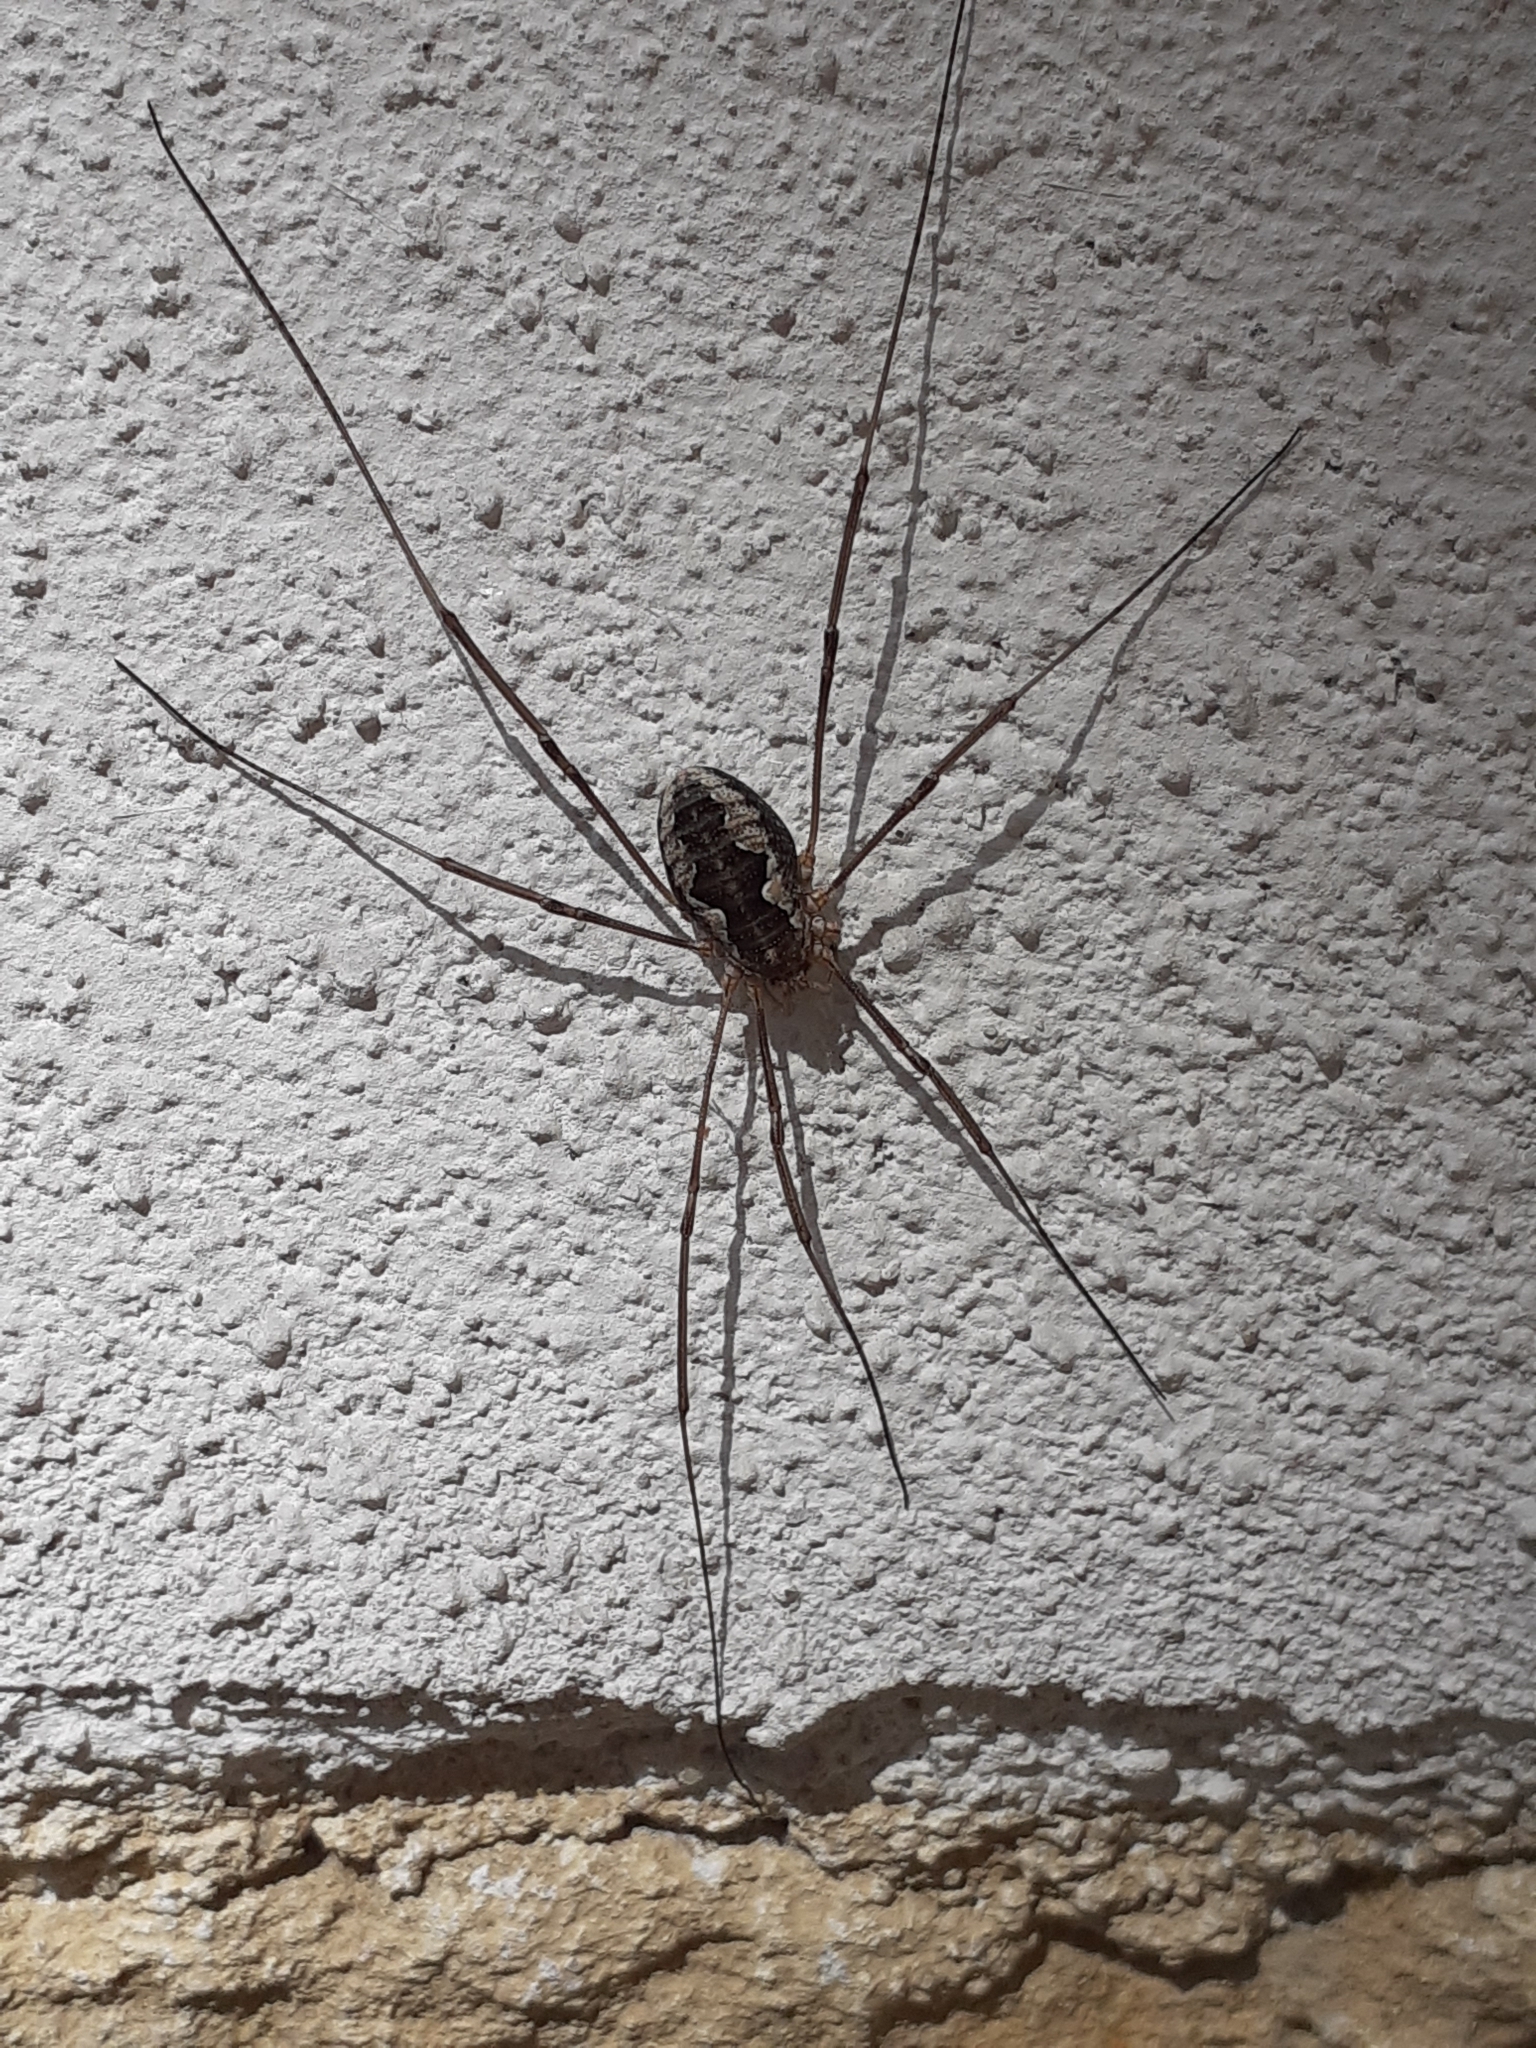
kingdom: Animalia
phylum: Arthropoda
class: Arachnida
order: Opiliones
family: Phalangiidae
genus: Phalangium
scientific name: Phalangium opilio
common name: Daddy longleg
